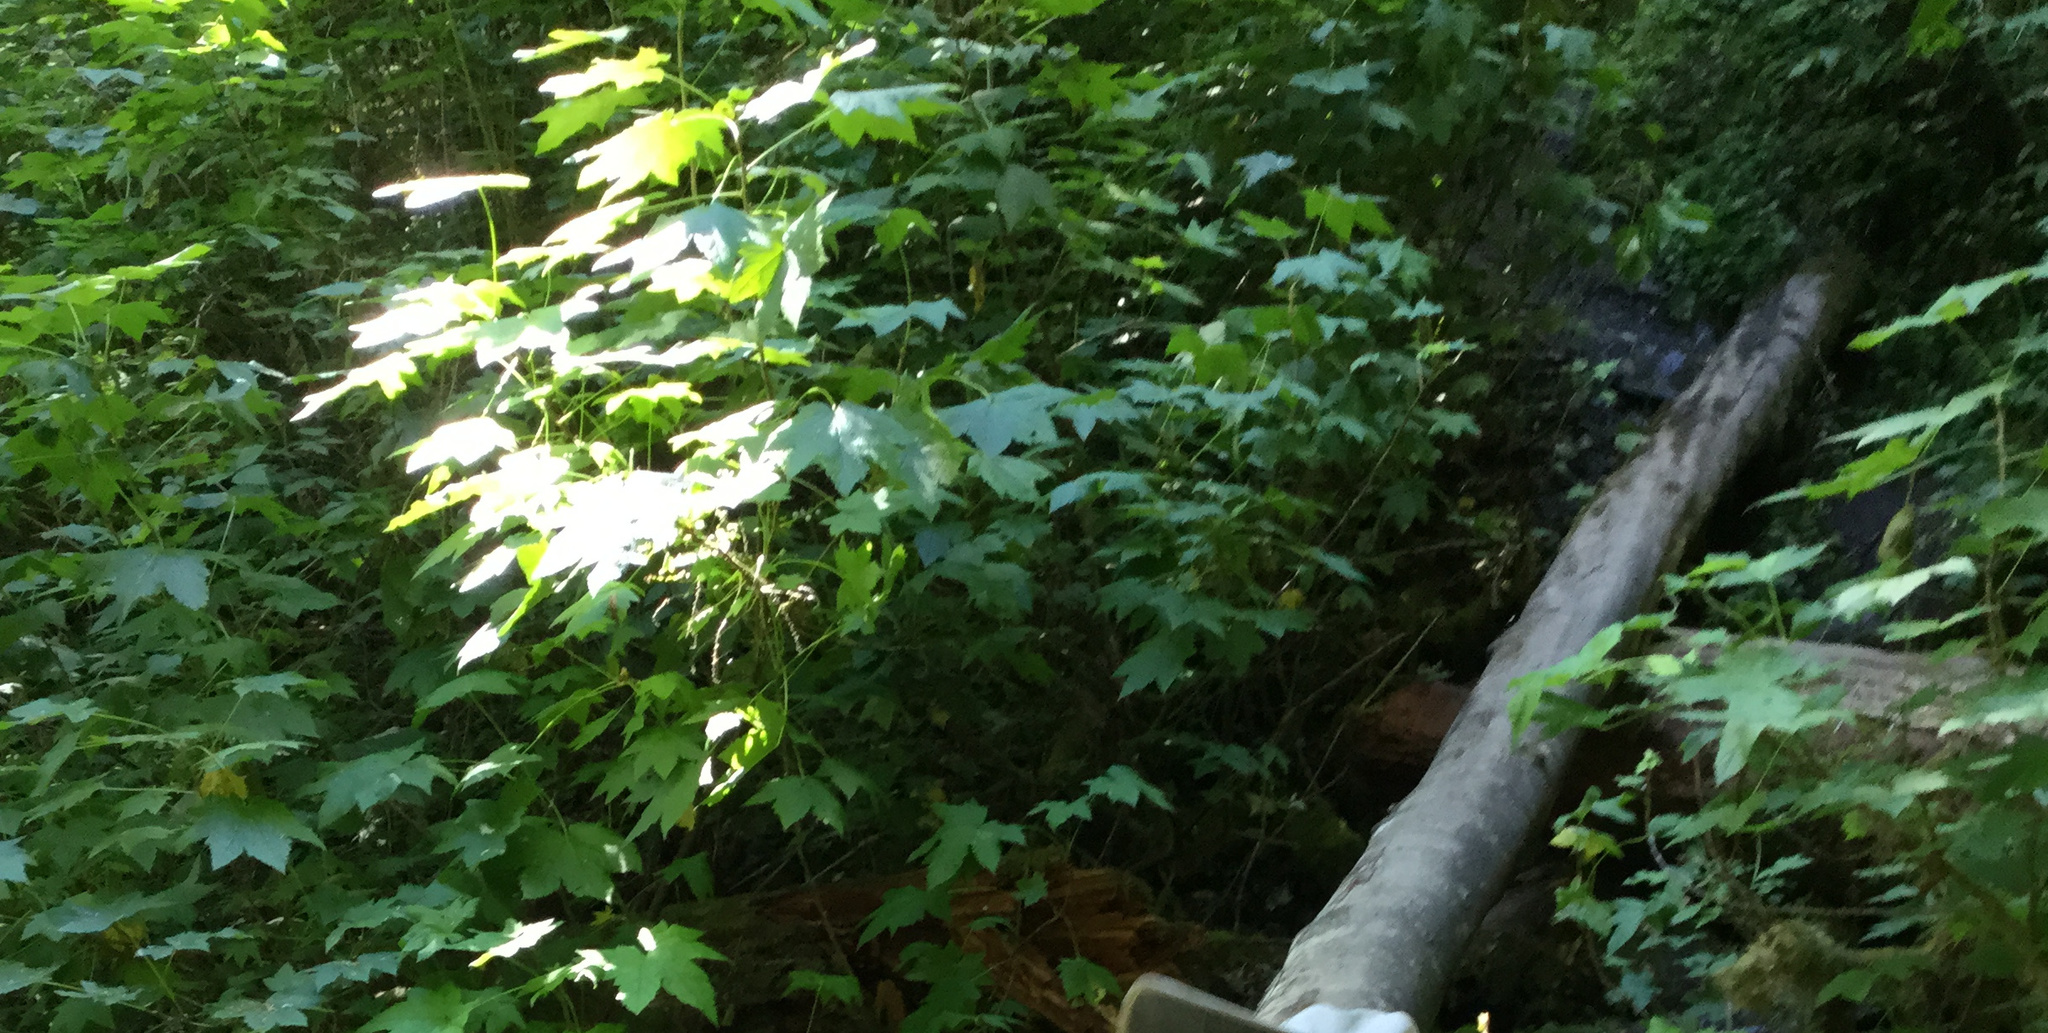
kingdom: Plantae
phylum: Tracheophyta
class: Magnoliopsida
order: Apiales
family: Araliaceae
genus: Oplopanax
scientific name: Oplopanax horridus
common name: Devil's walking-stick
